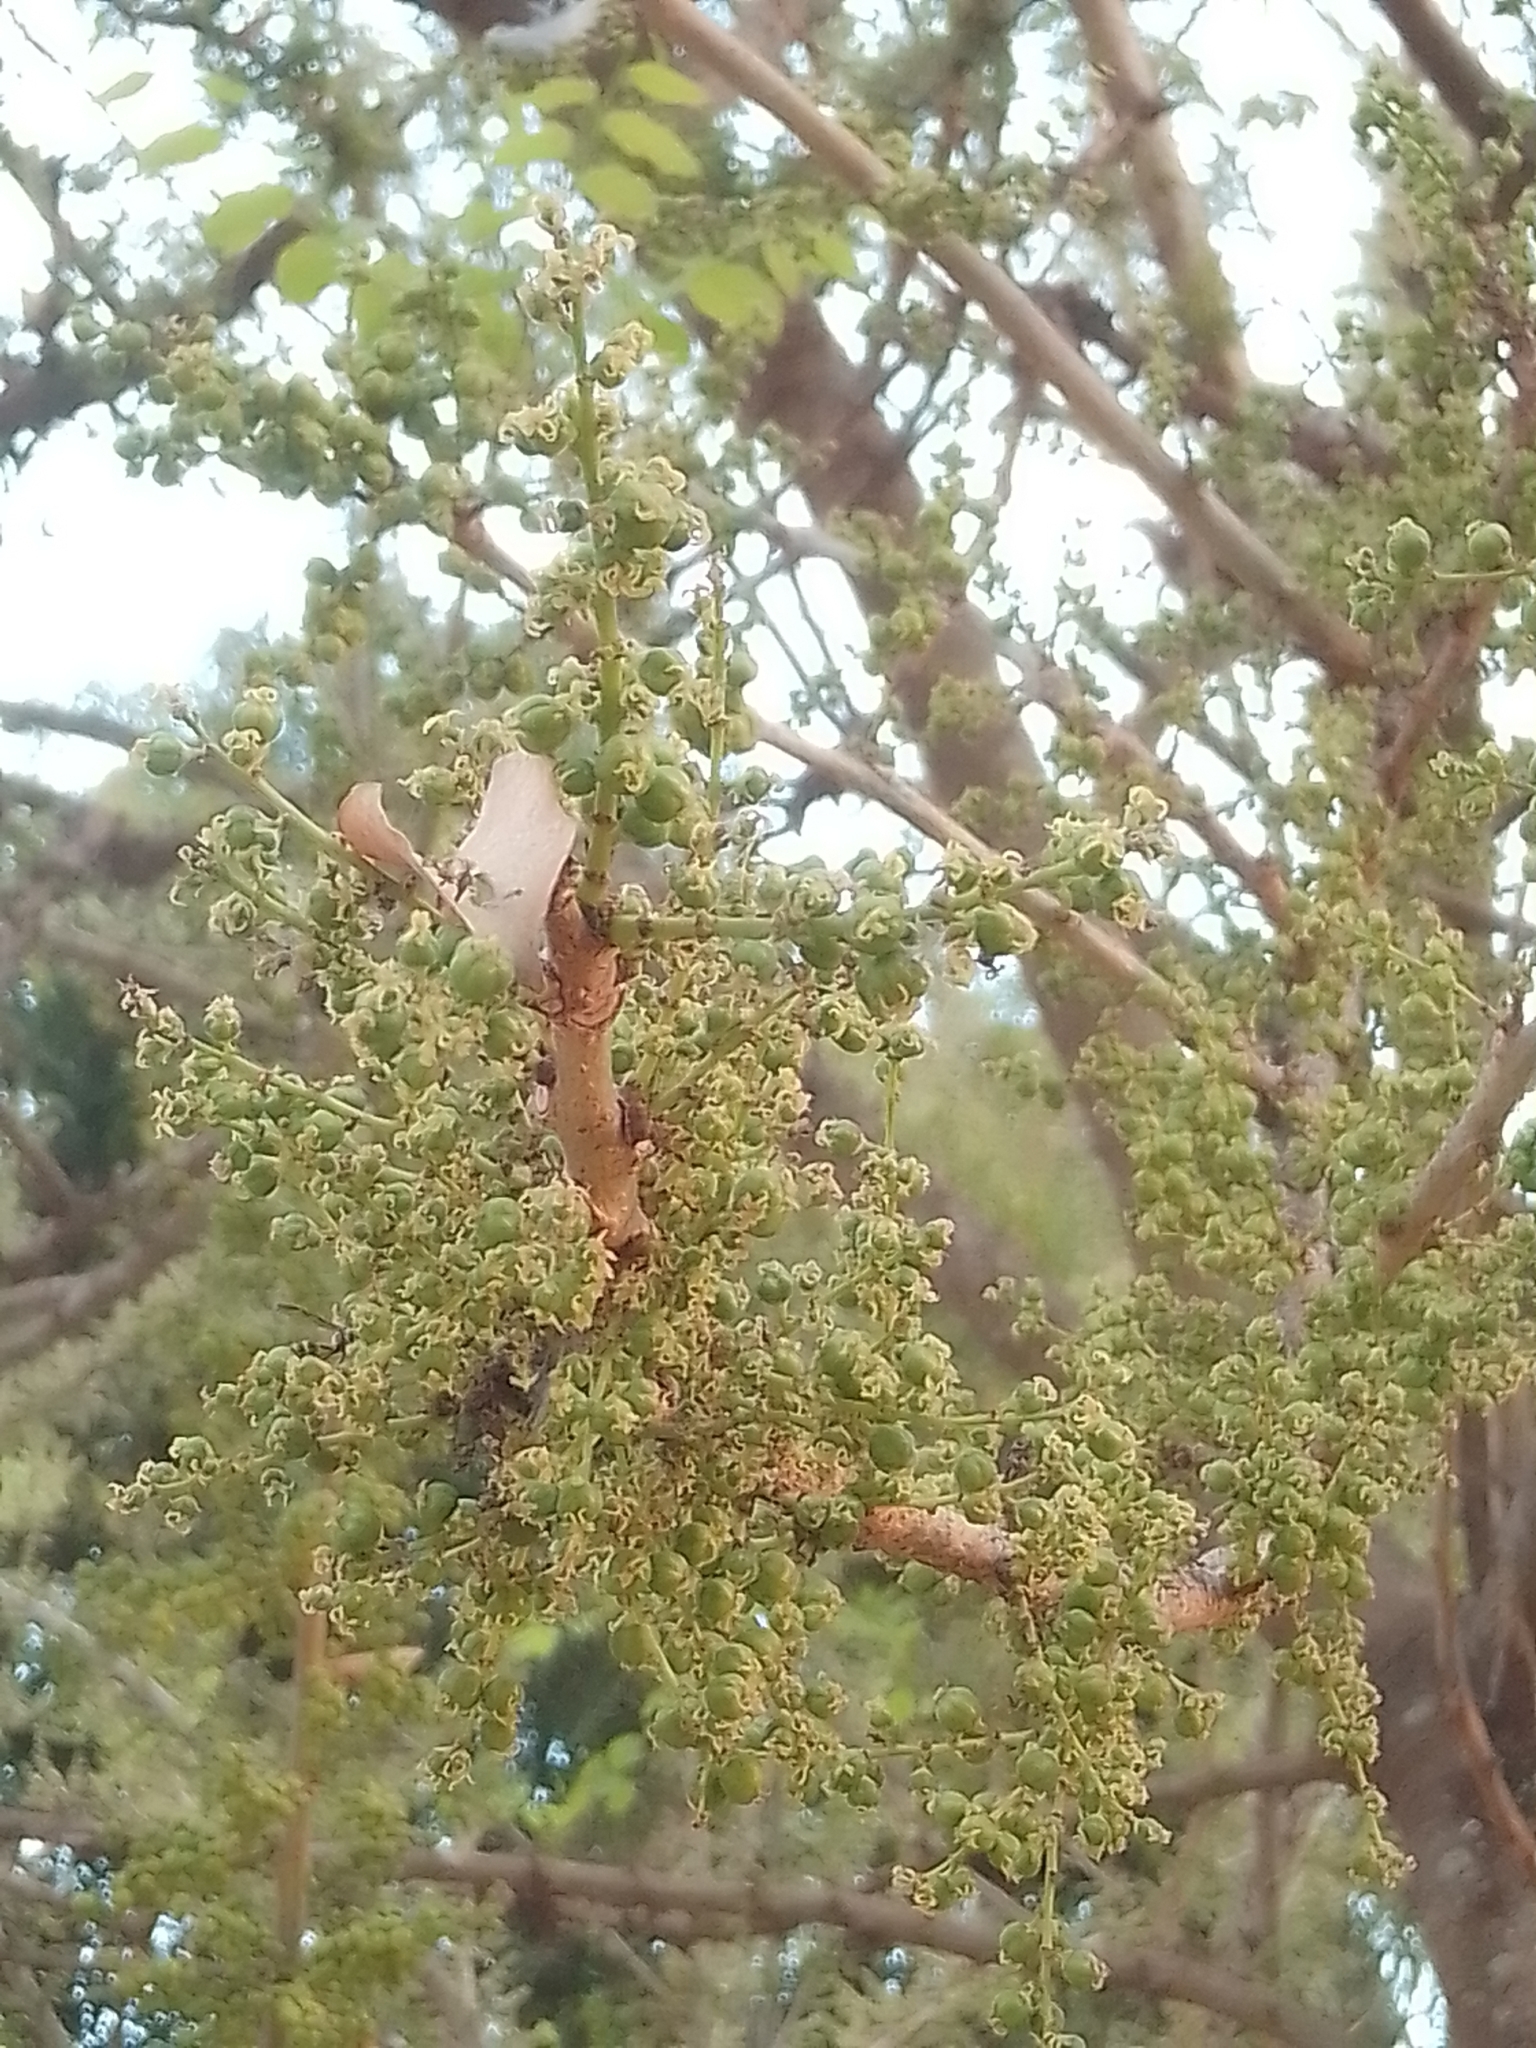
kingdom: Plantae
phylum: Tracheophyta
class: Magnoliopsida
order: Malpighiales
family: Phyllanthaceae
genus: Phyllanthus
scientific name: Phyllanthus elsiae
